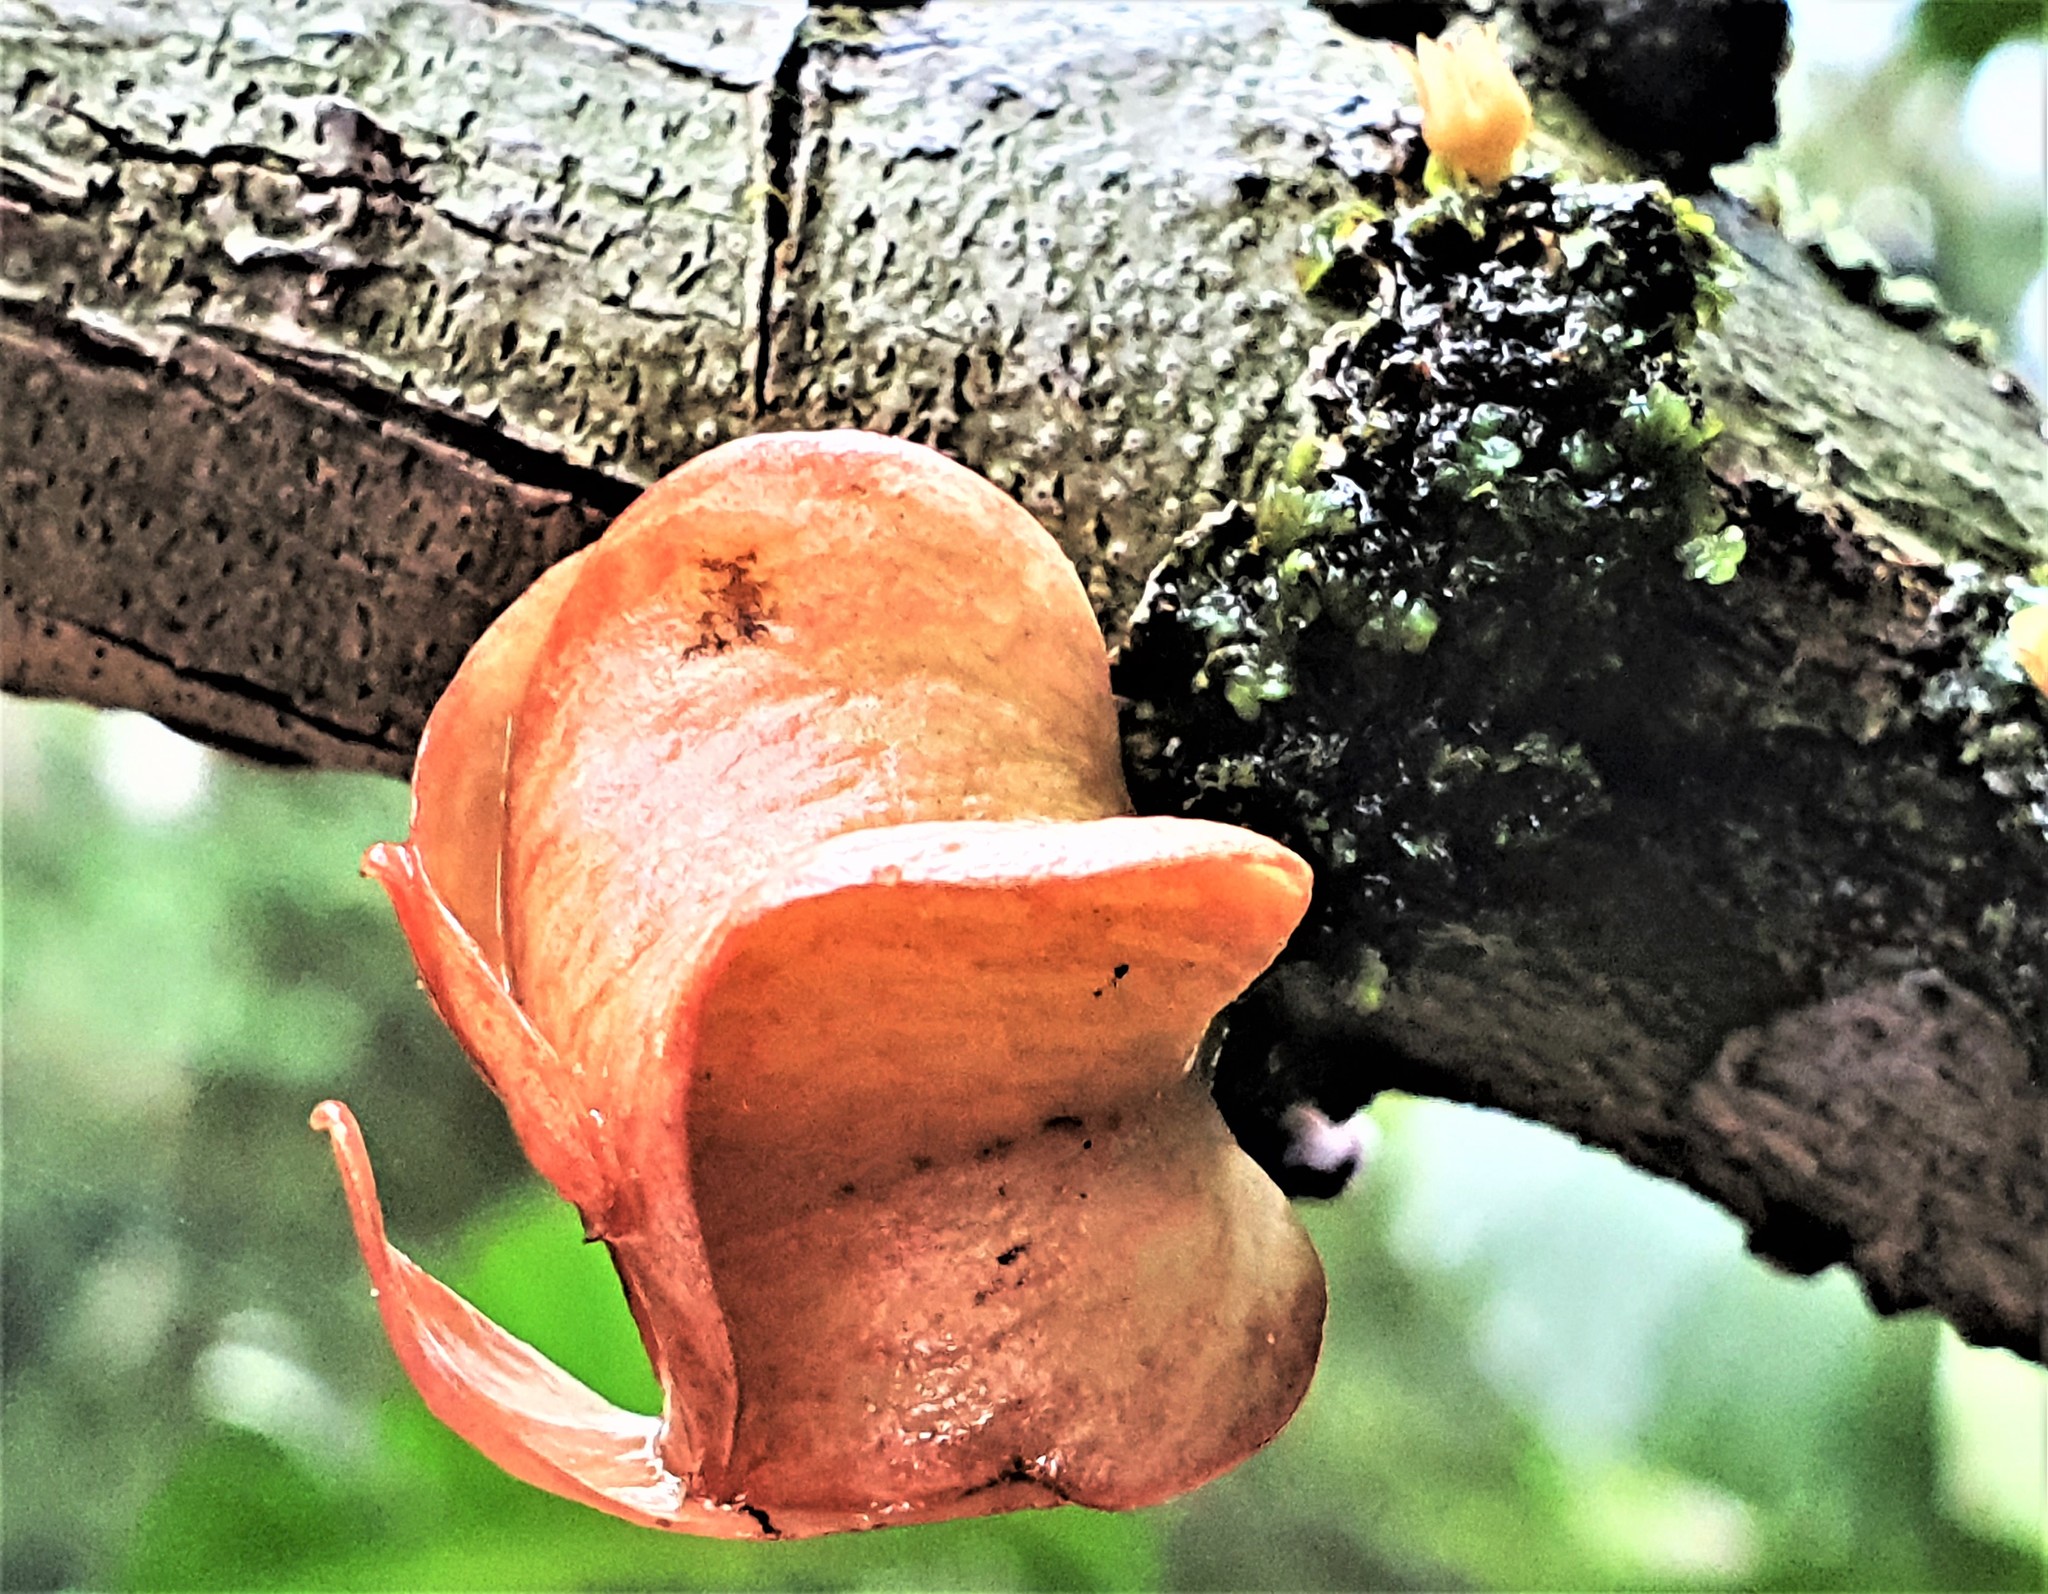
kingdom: Plantae
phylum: Tracheophyta
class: Magnoliopsida
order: Santalales
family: Erythropalaceae
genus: Heisteria
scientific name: Heisteria insculpta
